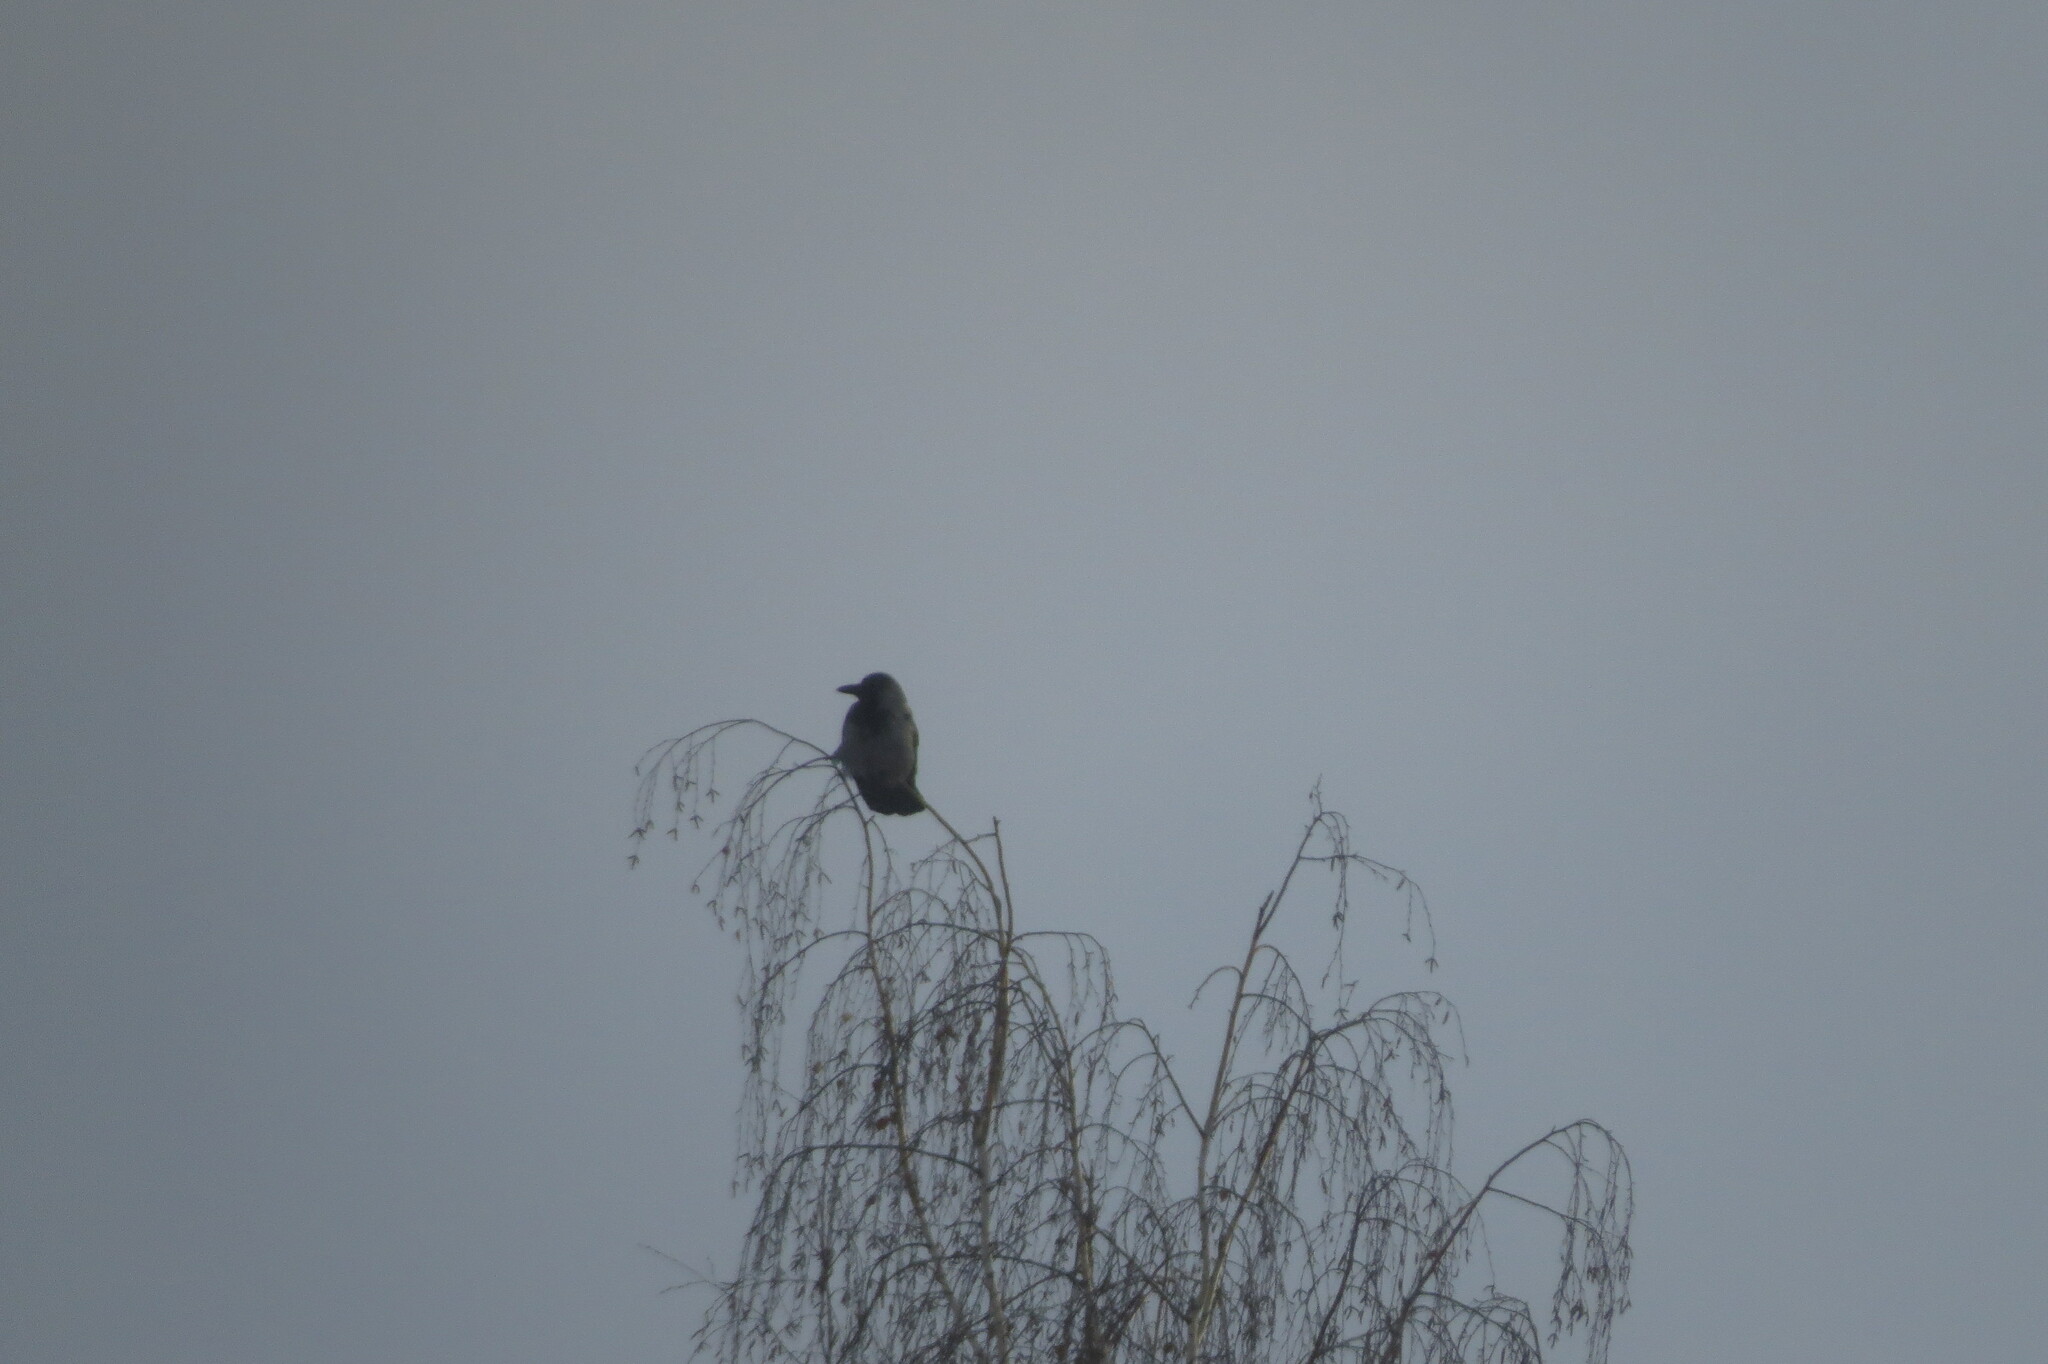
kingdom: Animalia
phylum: Chordata
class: Aves
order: Passeriformes
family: Corvidae
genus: Corvus
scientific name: Corvus cornix
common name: Hooded crow
